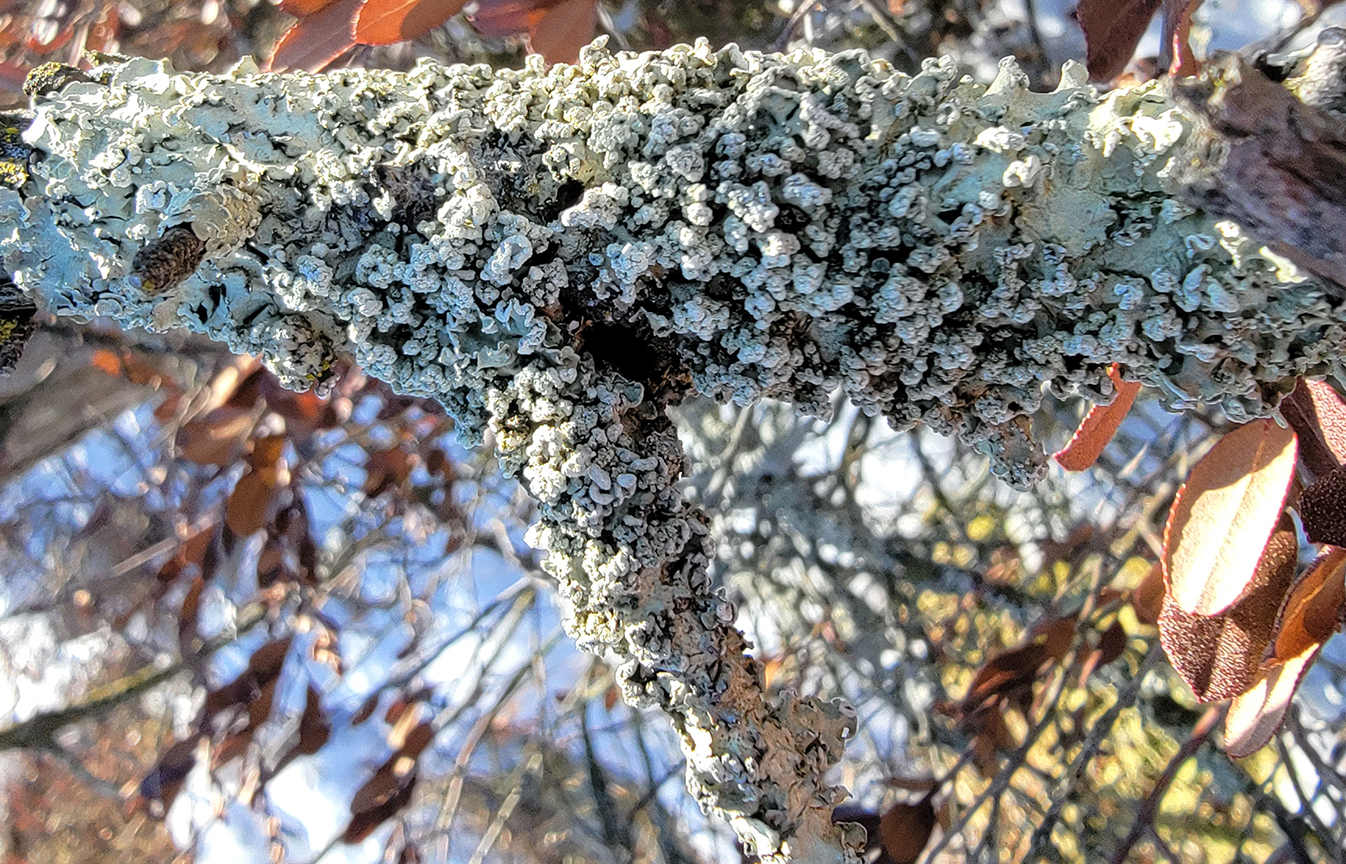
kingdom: Fungi
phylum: Ascomycota
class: Lecanoromycetes
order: Lecanorales
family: Parmeliaceae
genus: Flavopunctelia
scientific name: Flavopunctelia soredica
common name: Powder-edged speckled greenshield
